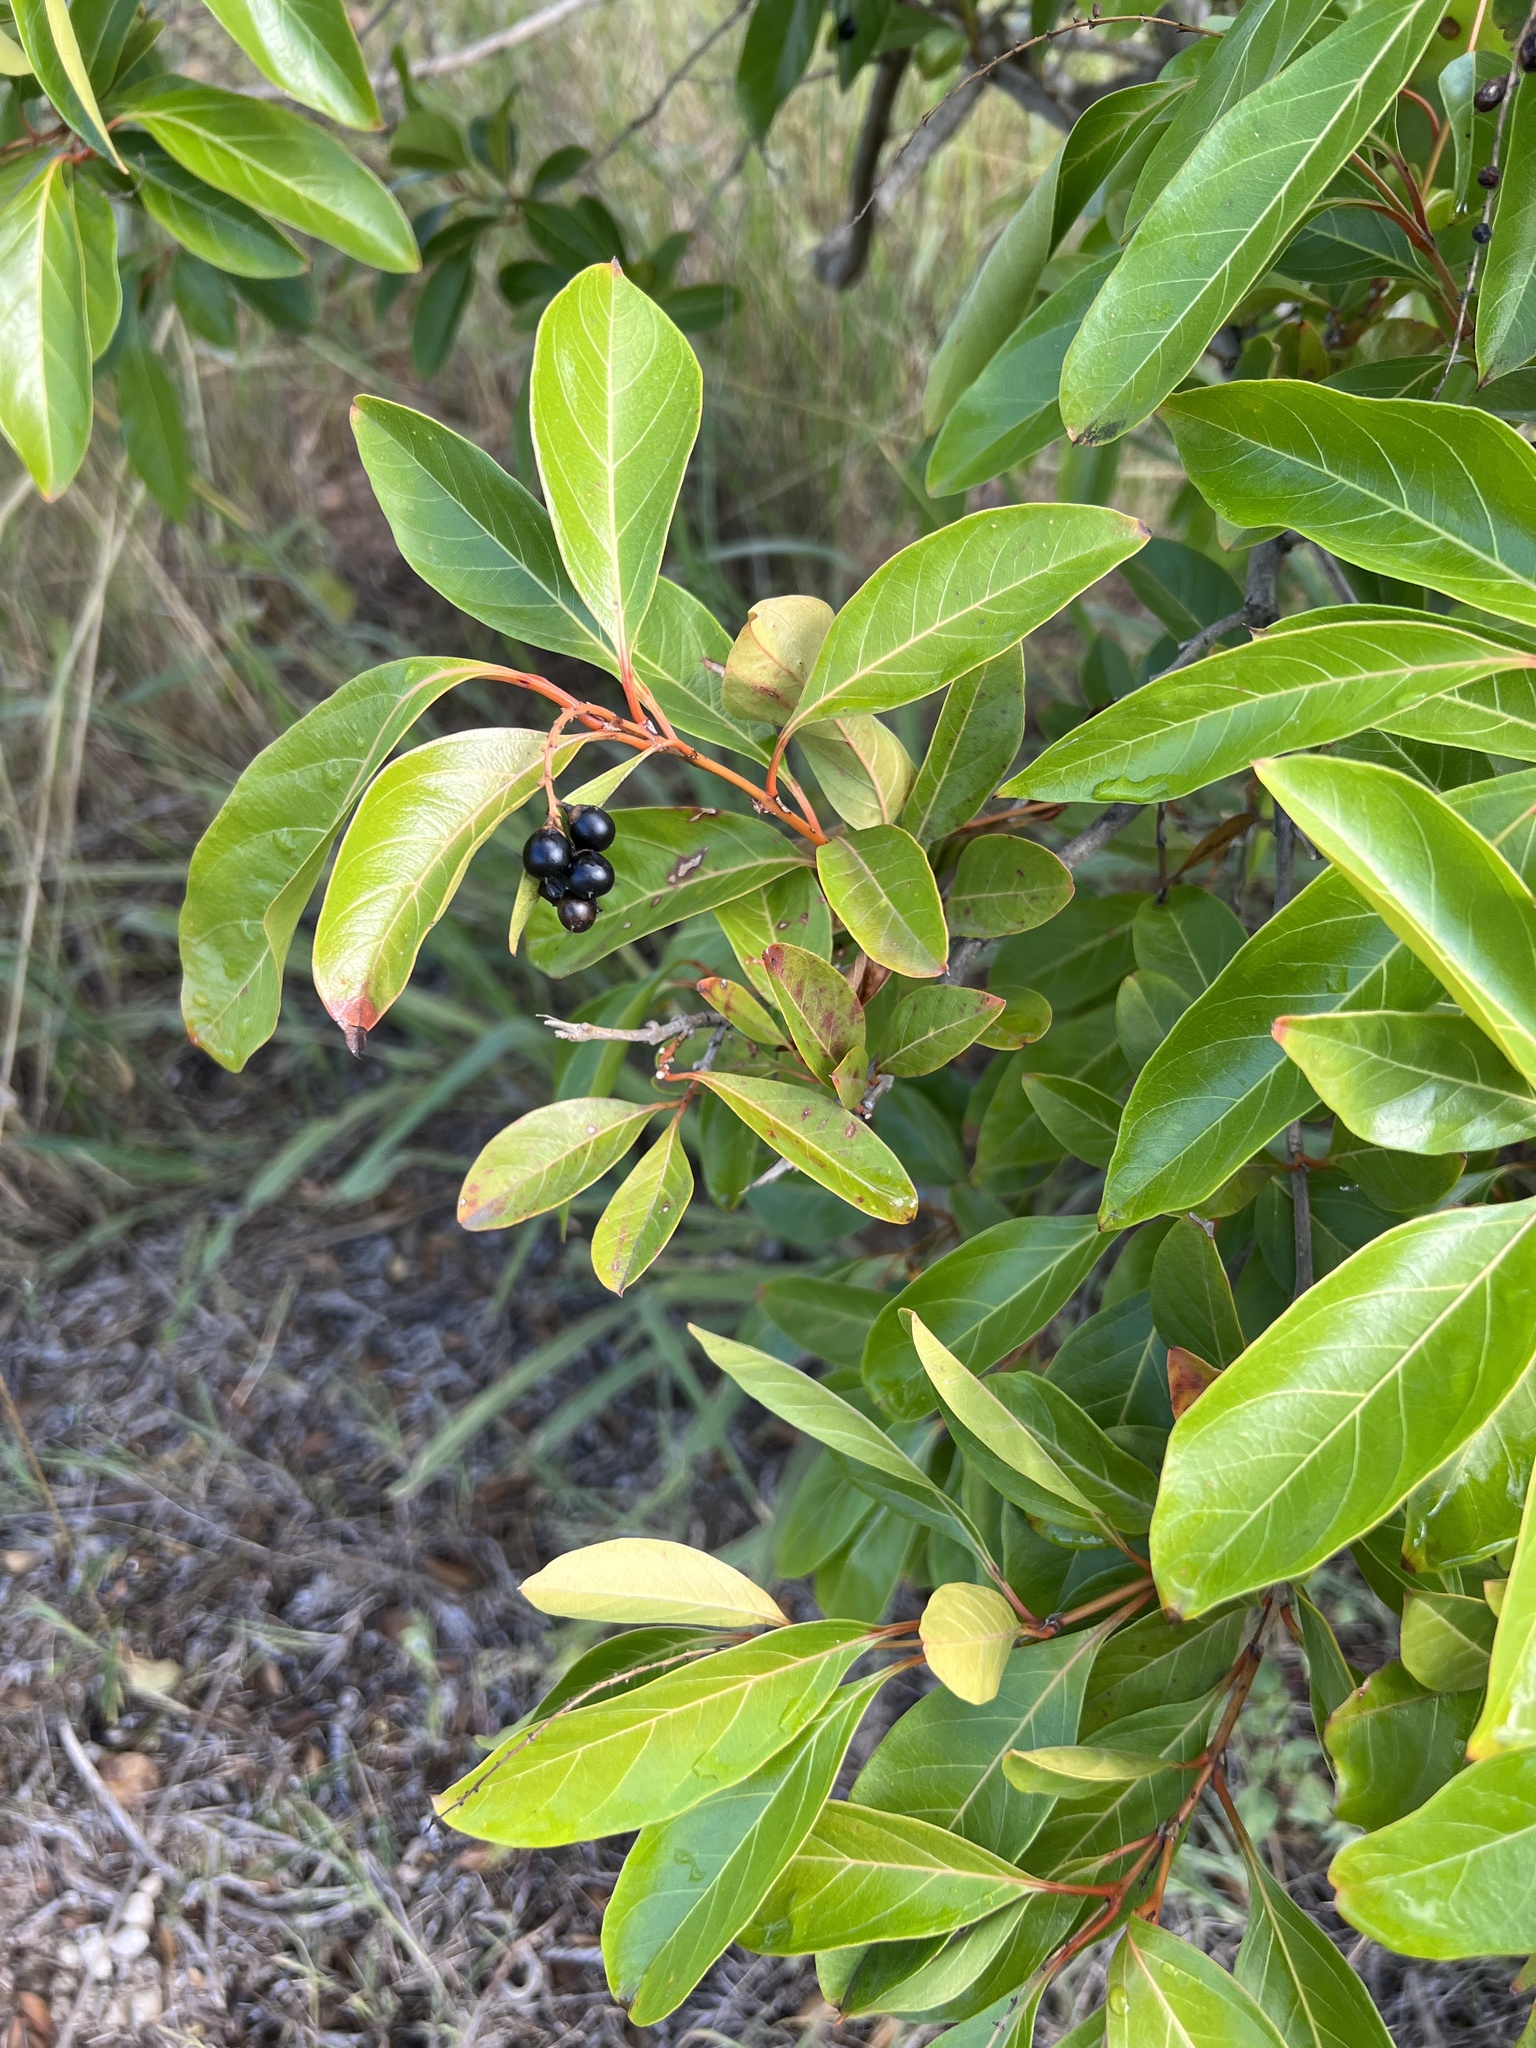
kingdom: Plantae
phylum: Tracheophyta
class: Magnoliopsida
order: Lamiales
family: Verbenaceae
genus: Citharexylum
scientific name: Citharexylum spinosum
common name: Fiddlewood
